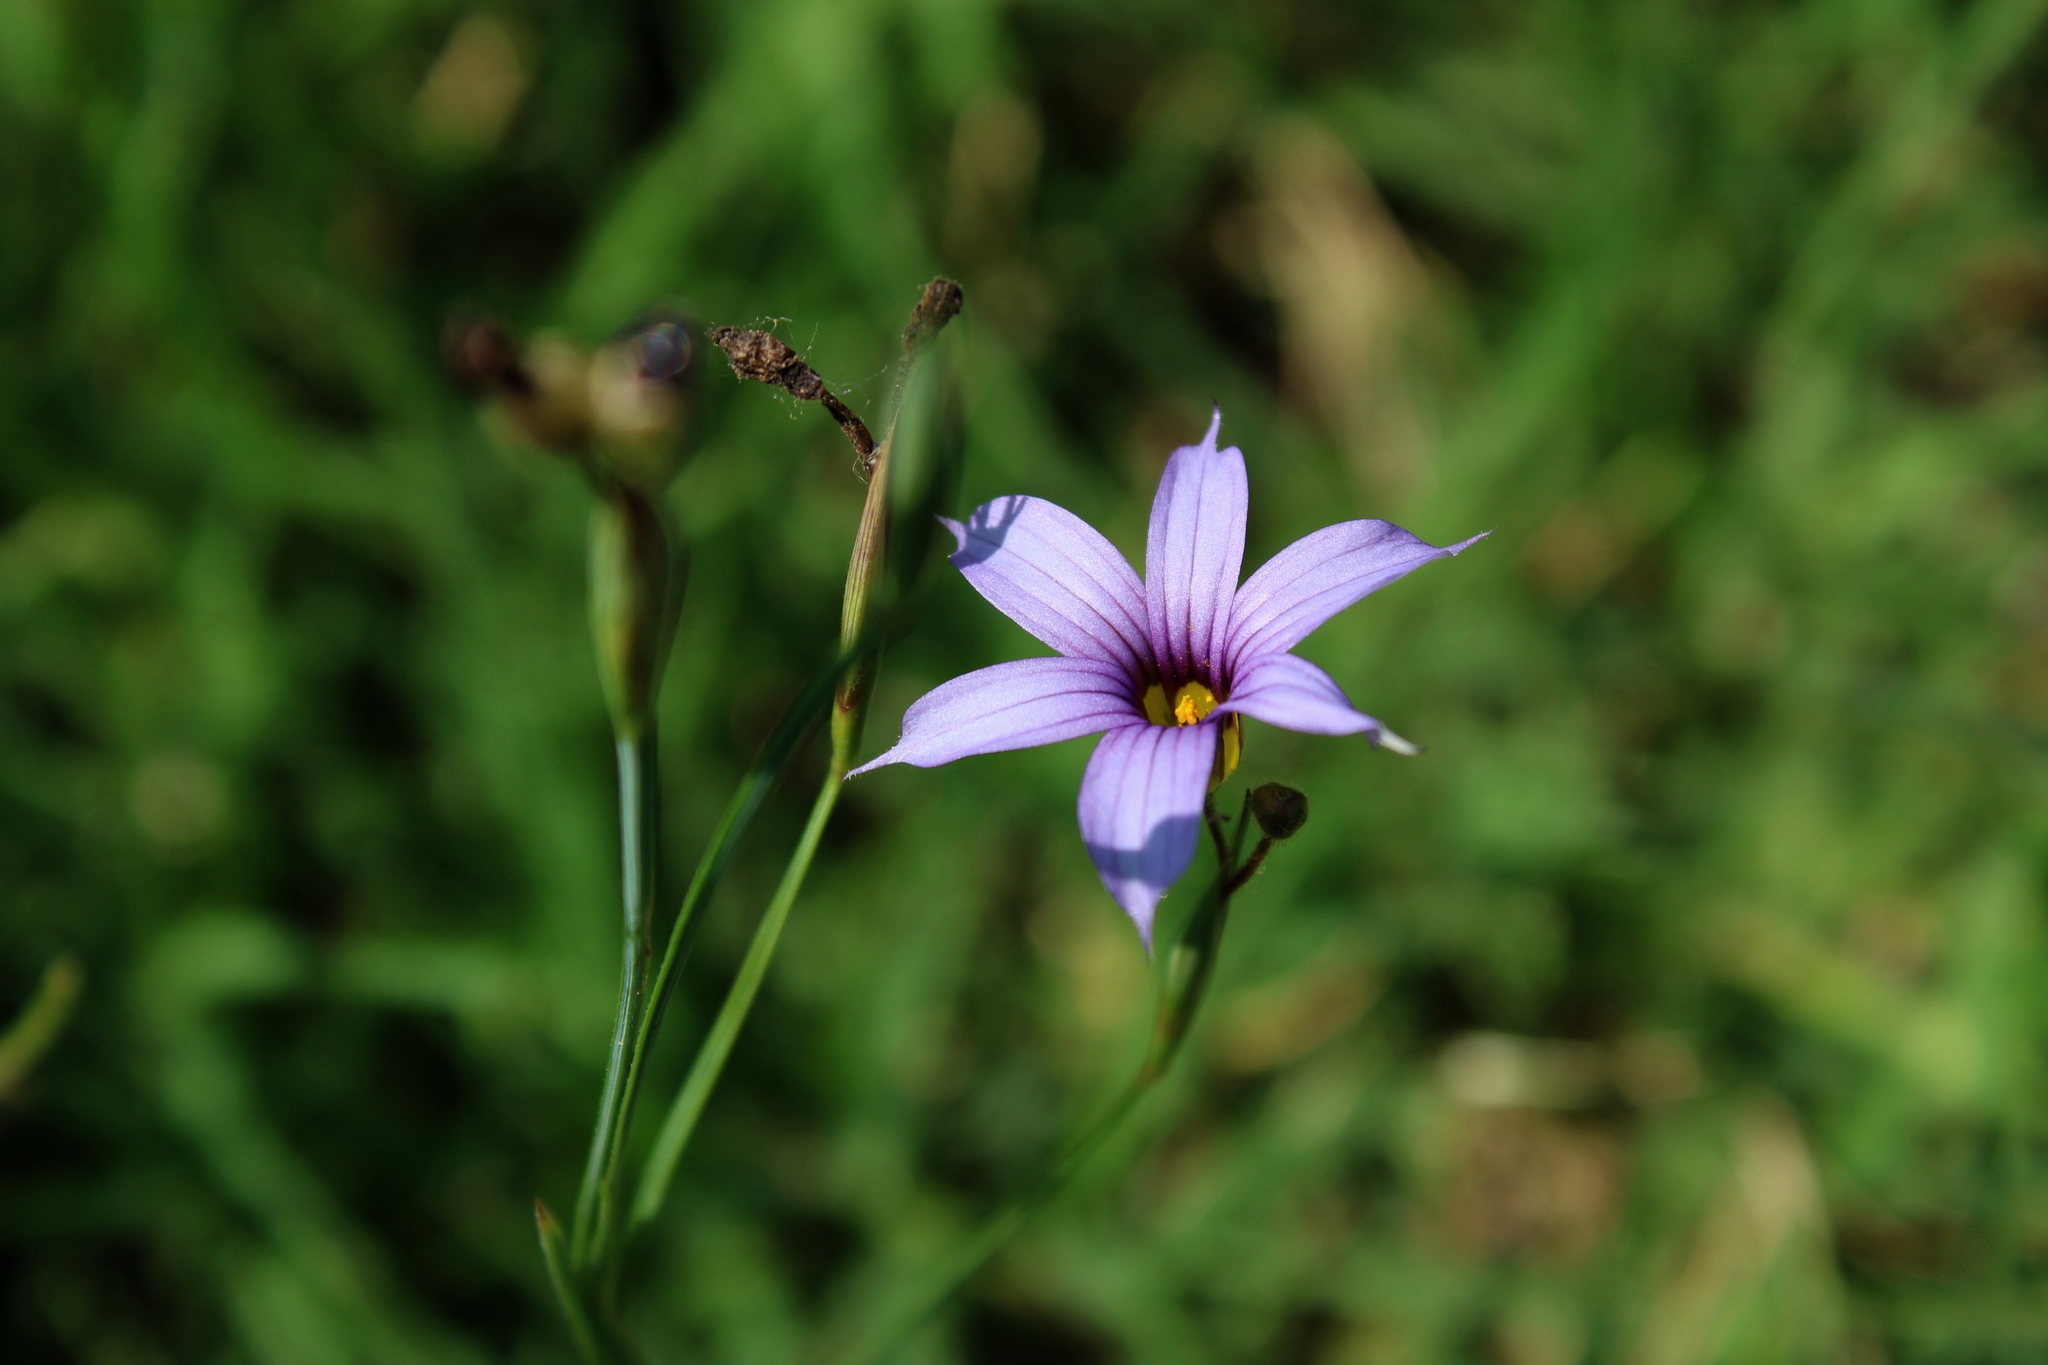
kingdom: Plantae
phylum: Tracheophyta
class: Liliopsida
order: Asparagales
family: Iridaceae
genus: Sisyrinchium
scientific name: Sisyrinchium platense
